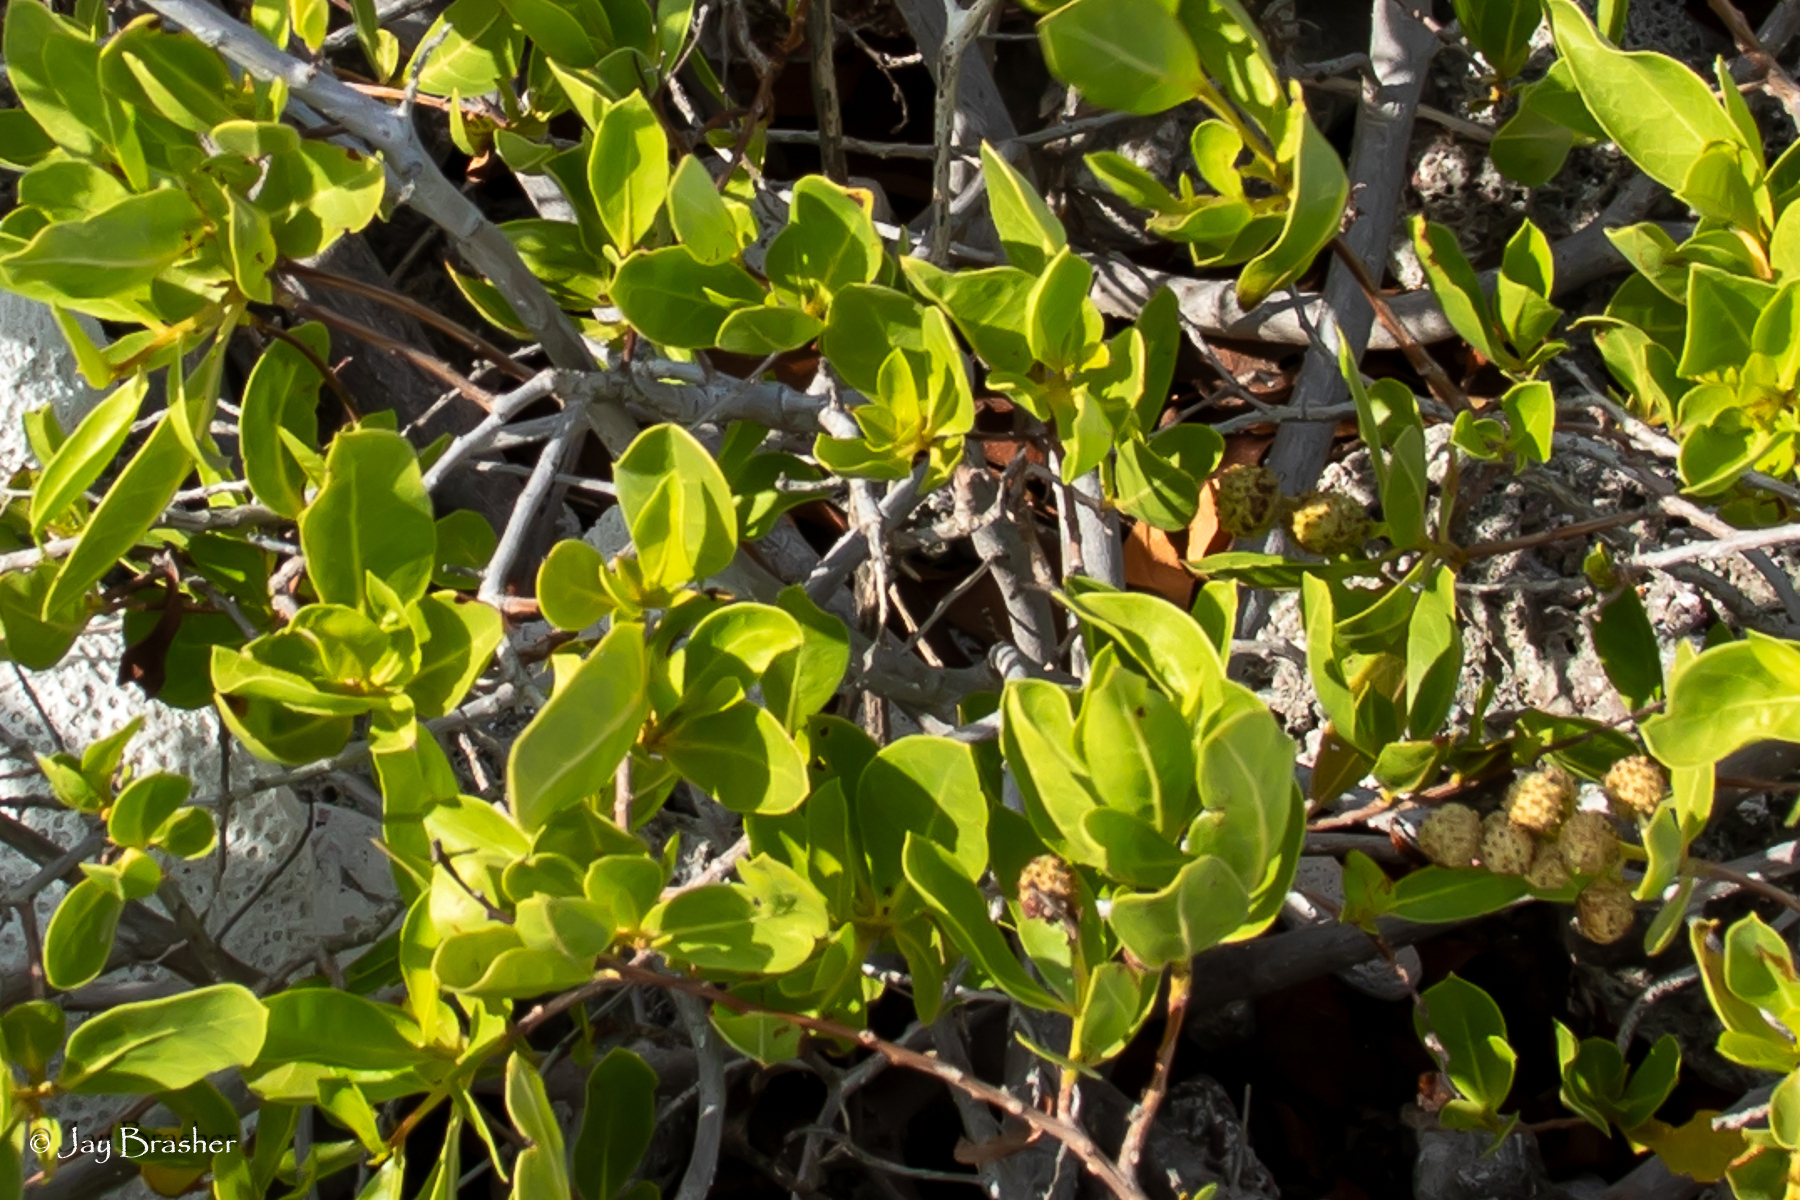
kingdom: Plantae
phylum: Tracheophyta
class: Magnoliopsida
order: Myrtales
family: Combretaceae
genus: Conocarpus
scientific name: Conocarpus erectus
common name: Button mangrove
